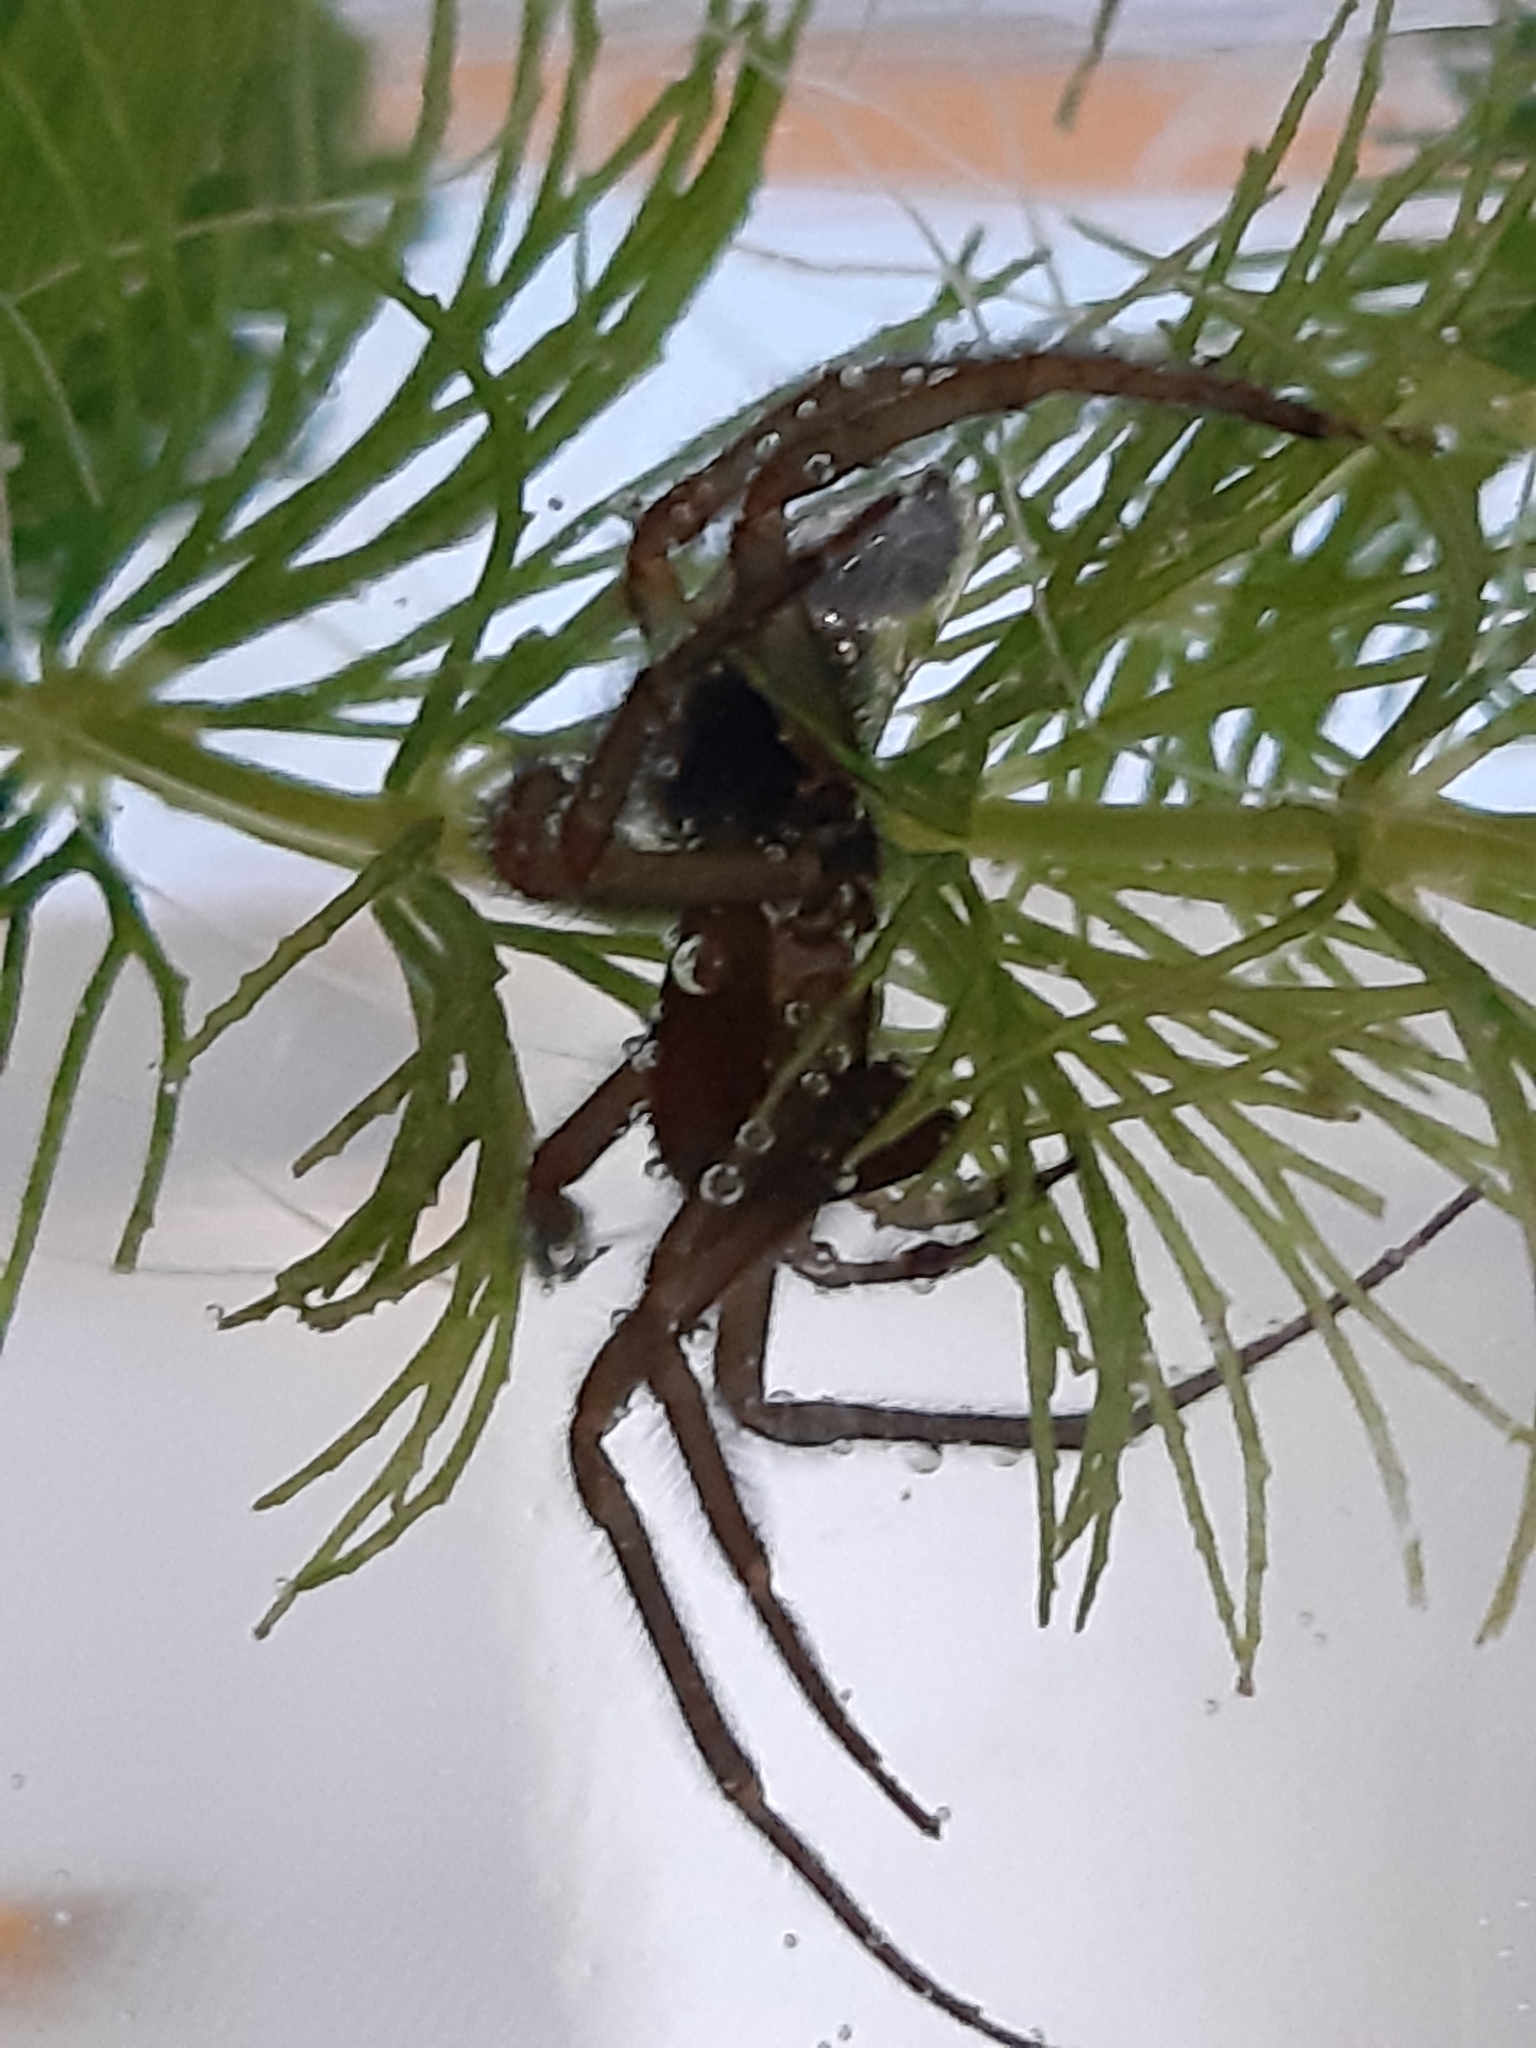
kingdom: Animalia
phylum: Arthropoda
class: Arachnida
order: Araneae
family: Dictynidae
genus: Argyroneta
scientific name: Argyroneta aquatica
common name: Water spider
